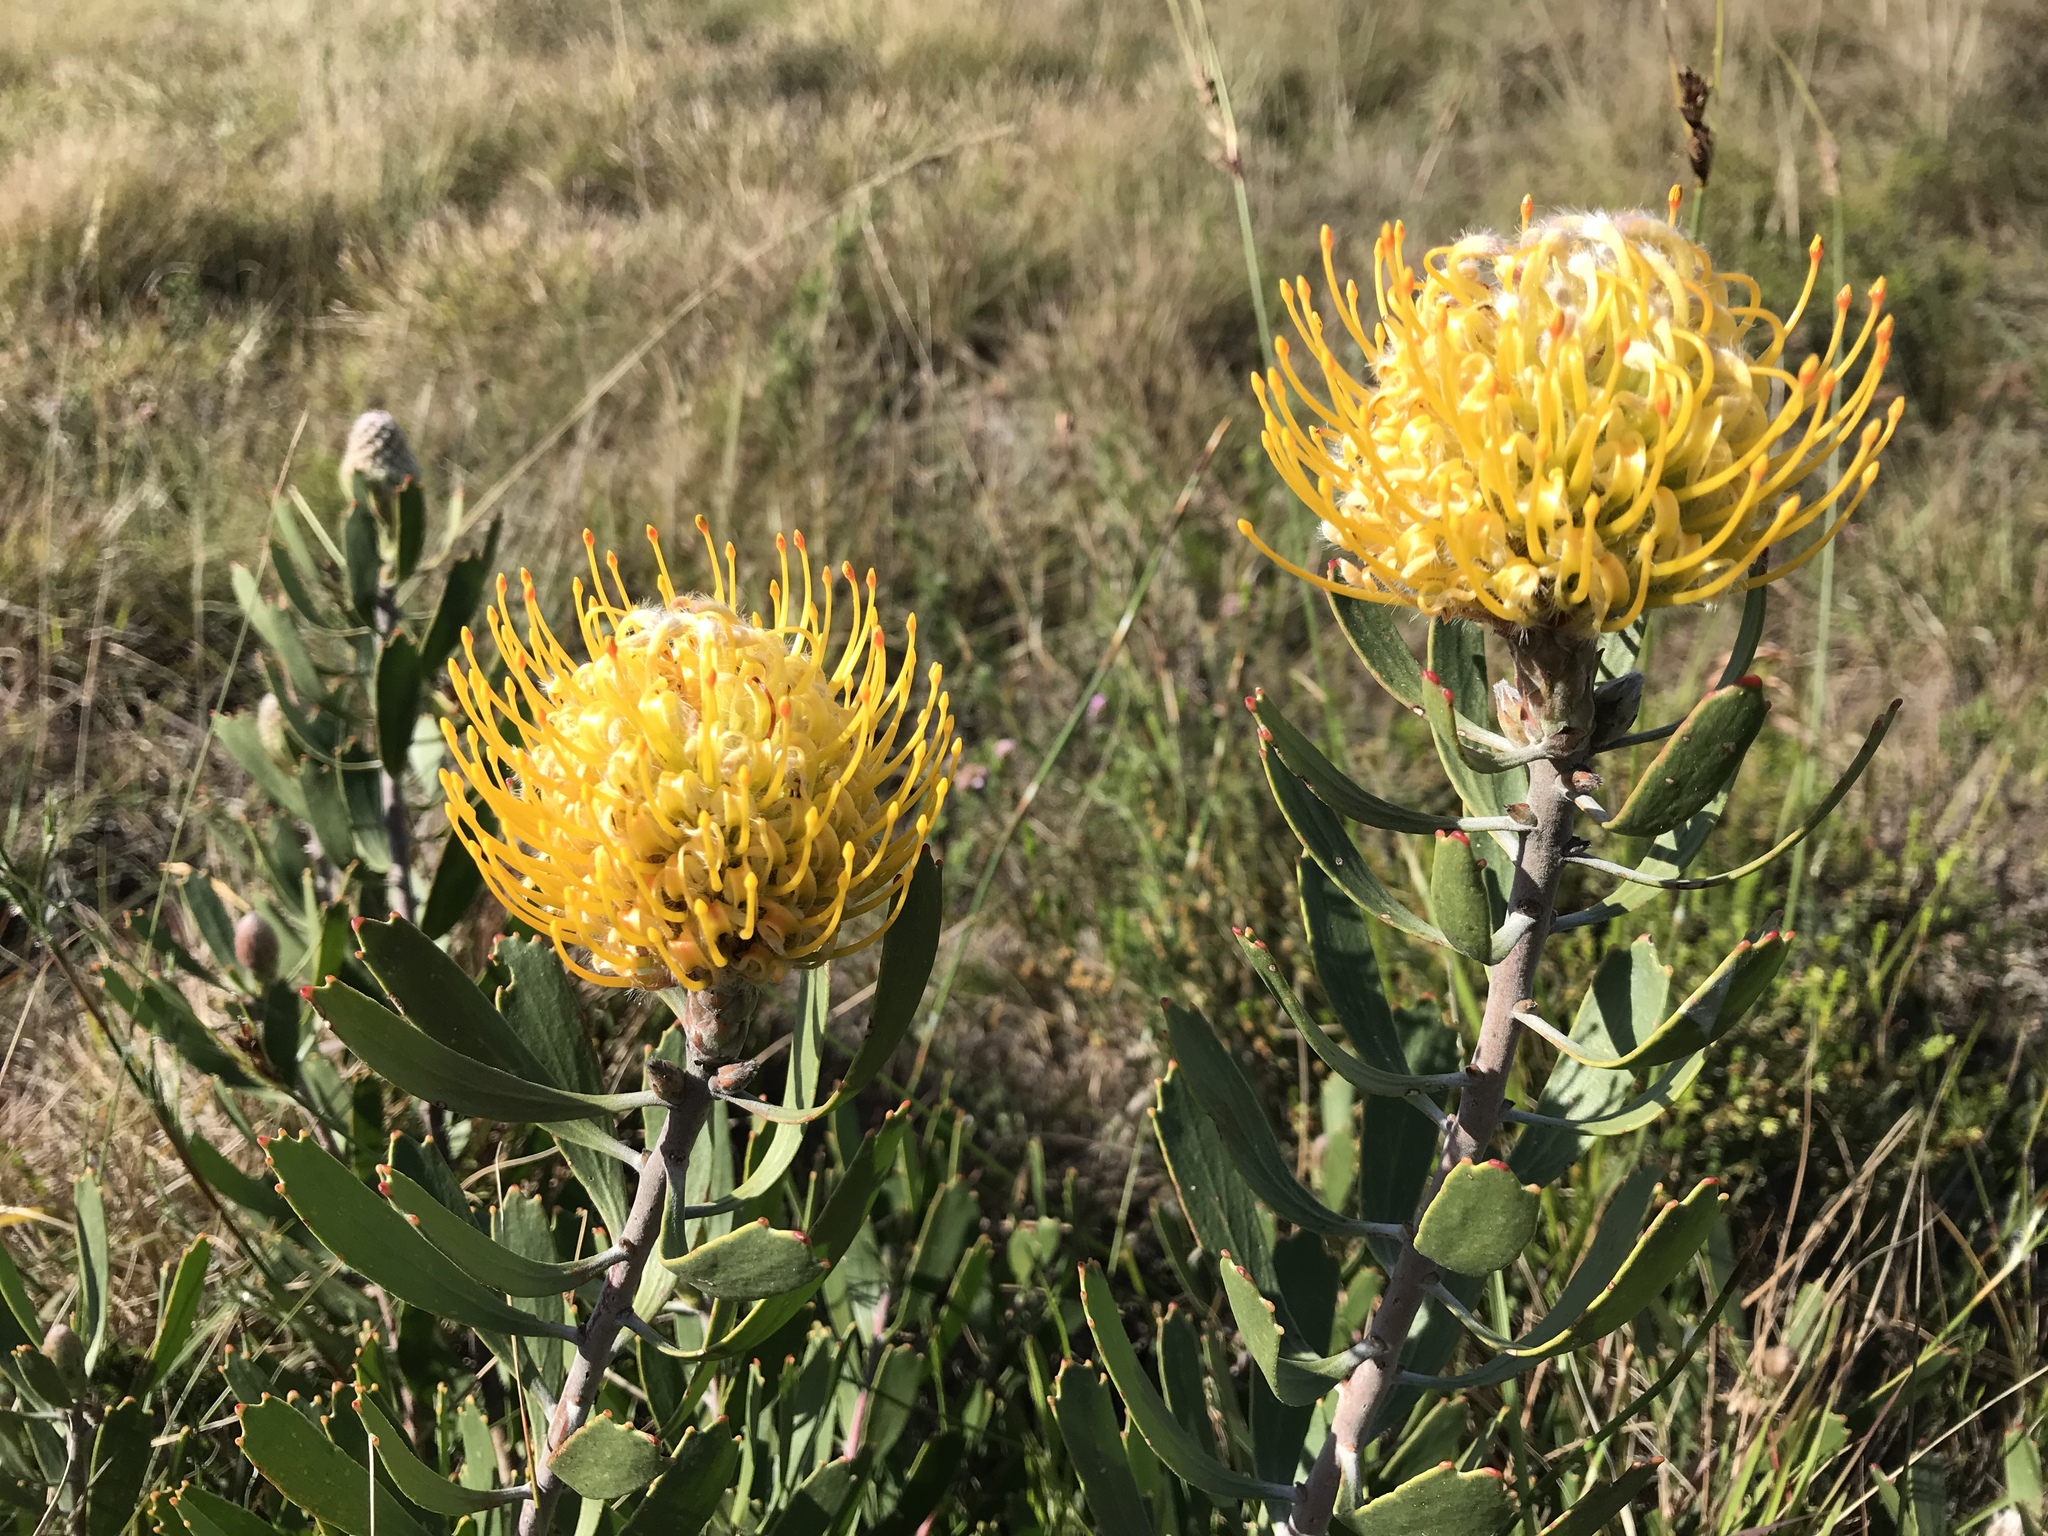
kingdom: Plantae
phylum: Tracheophyta
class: Magnoliopsida
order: Proteales
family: Proteaceae
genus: Leucospermum
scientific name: Leucospermum cuneiforme
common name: Common pincushion
